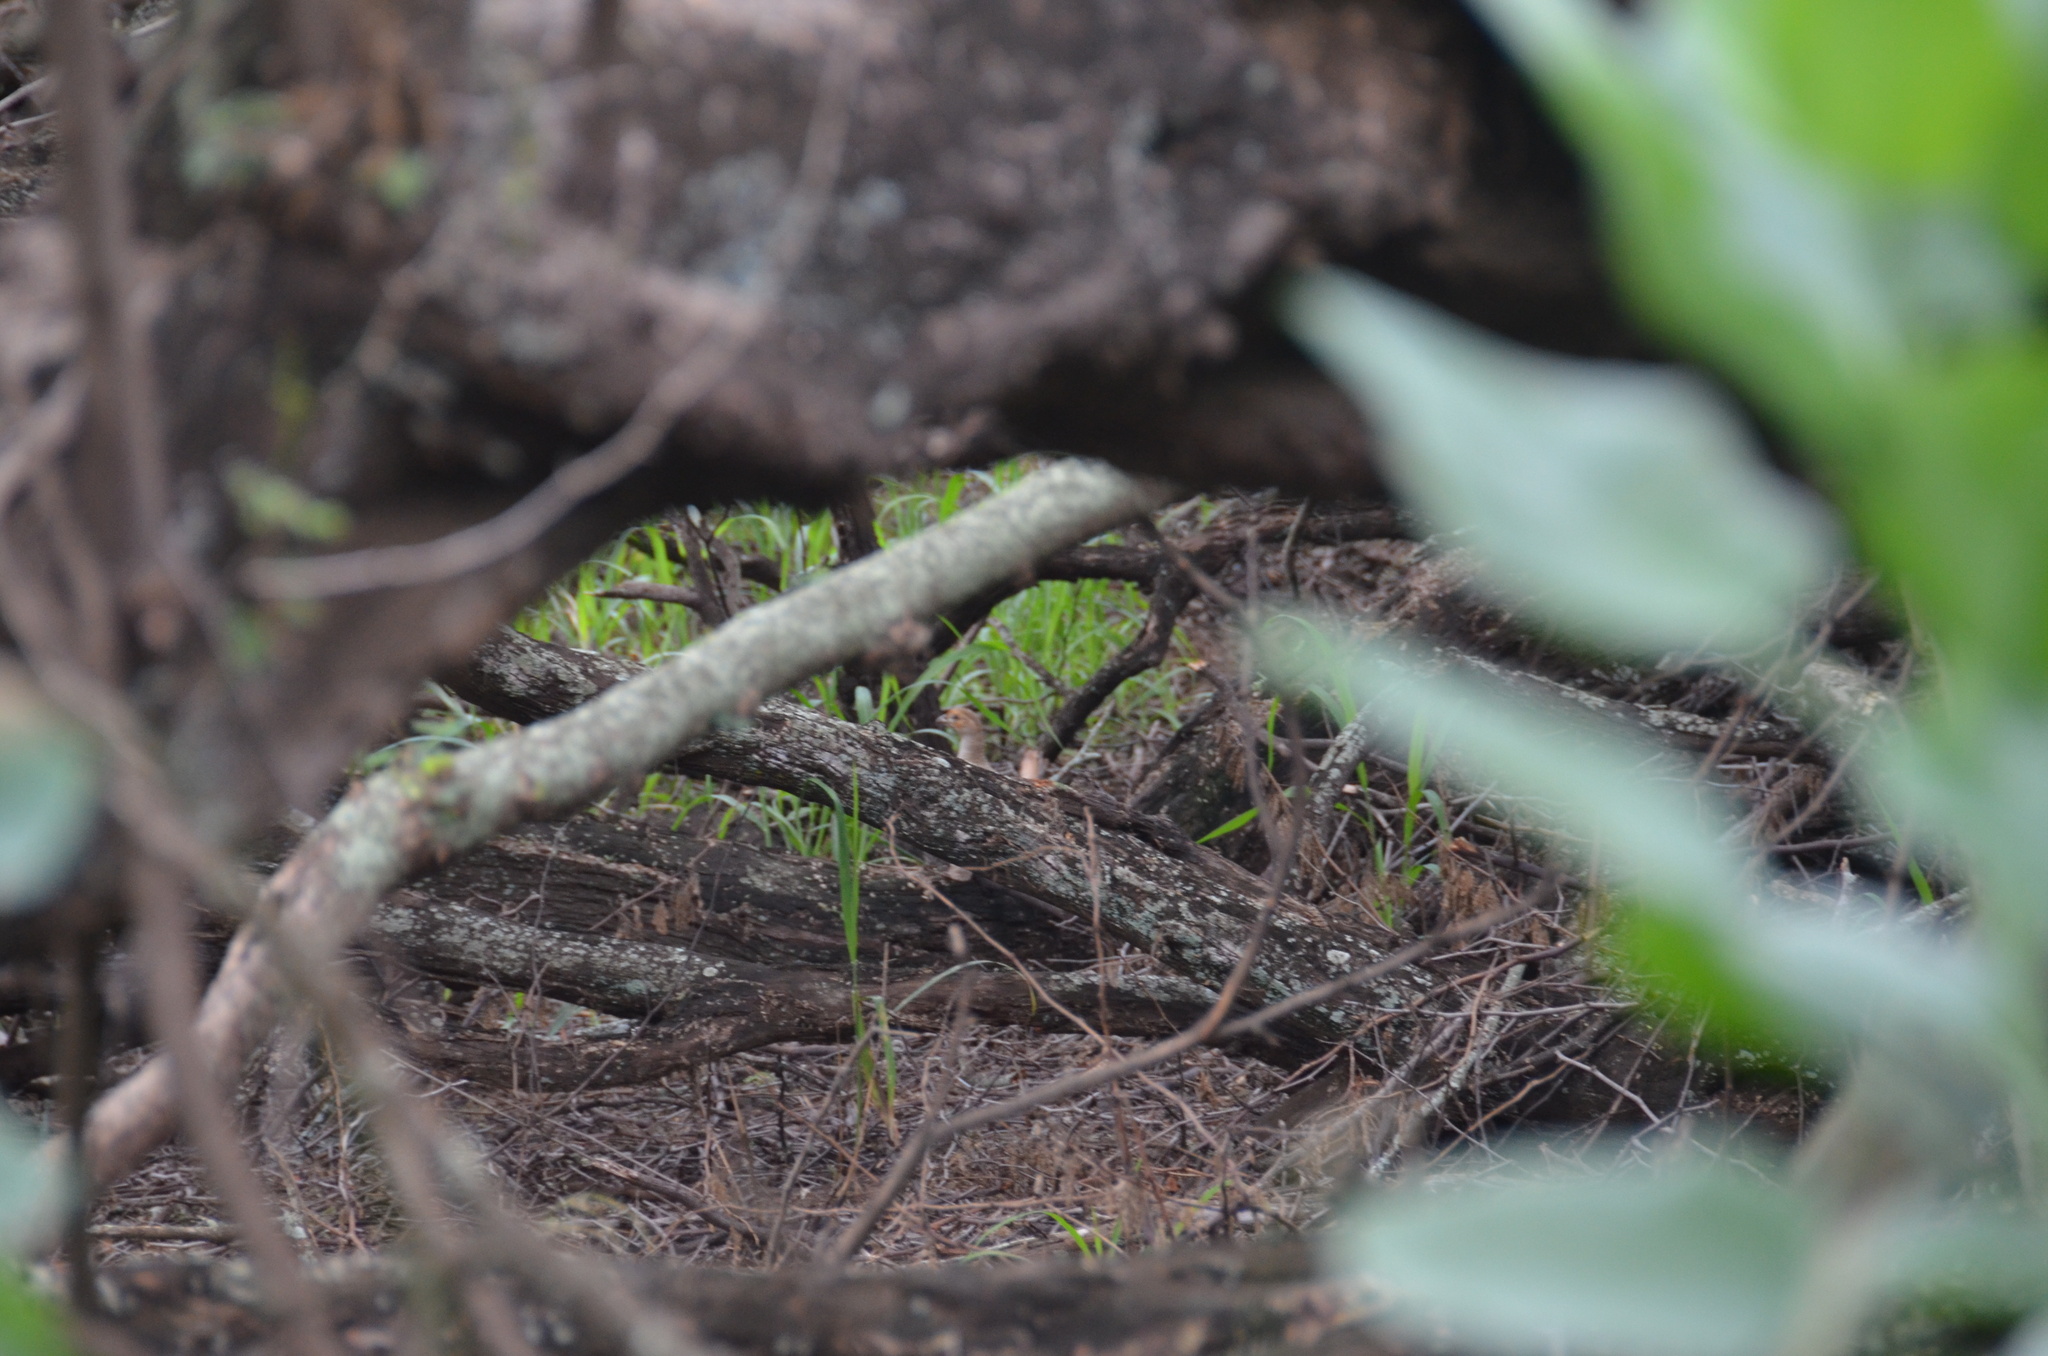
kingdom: Animalia
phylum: Chordata
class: Aves
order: Galliformes
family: Phasianidae
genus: Ortygornis
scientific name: Ortygornis pondicerianus
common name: Grey francolin
